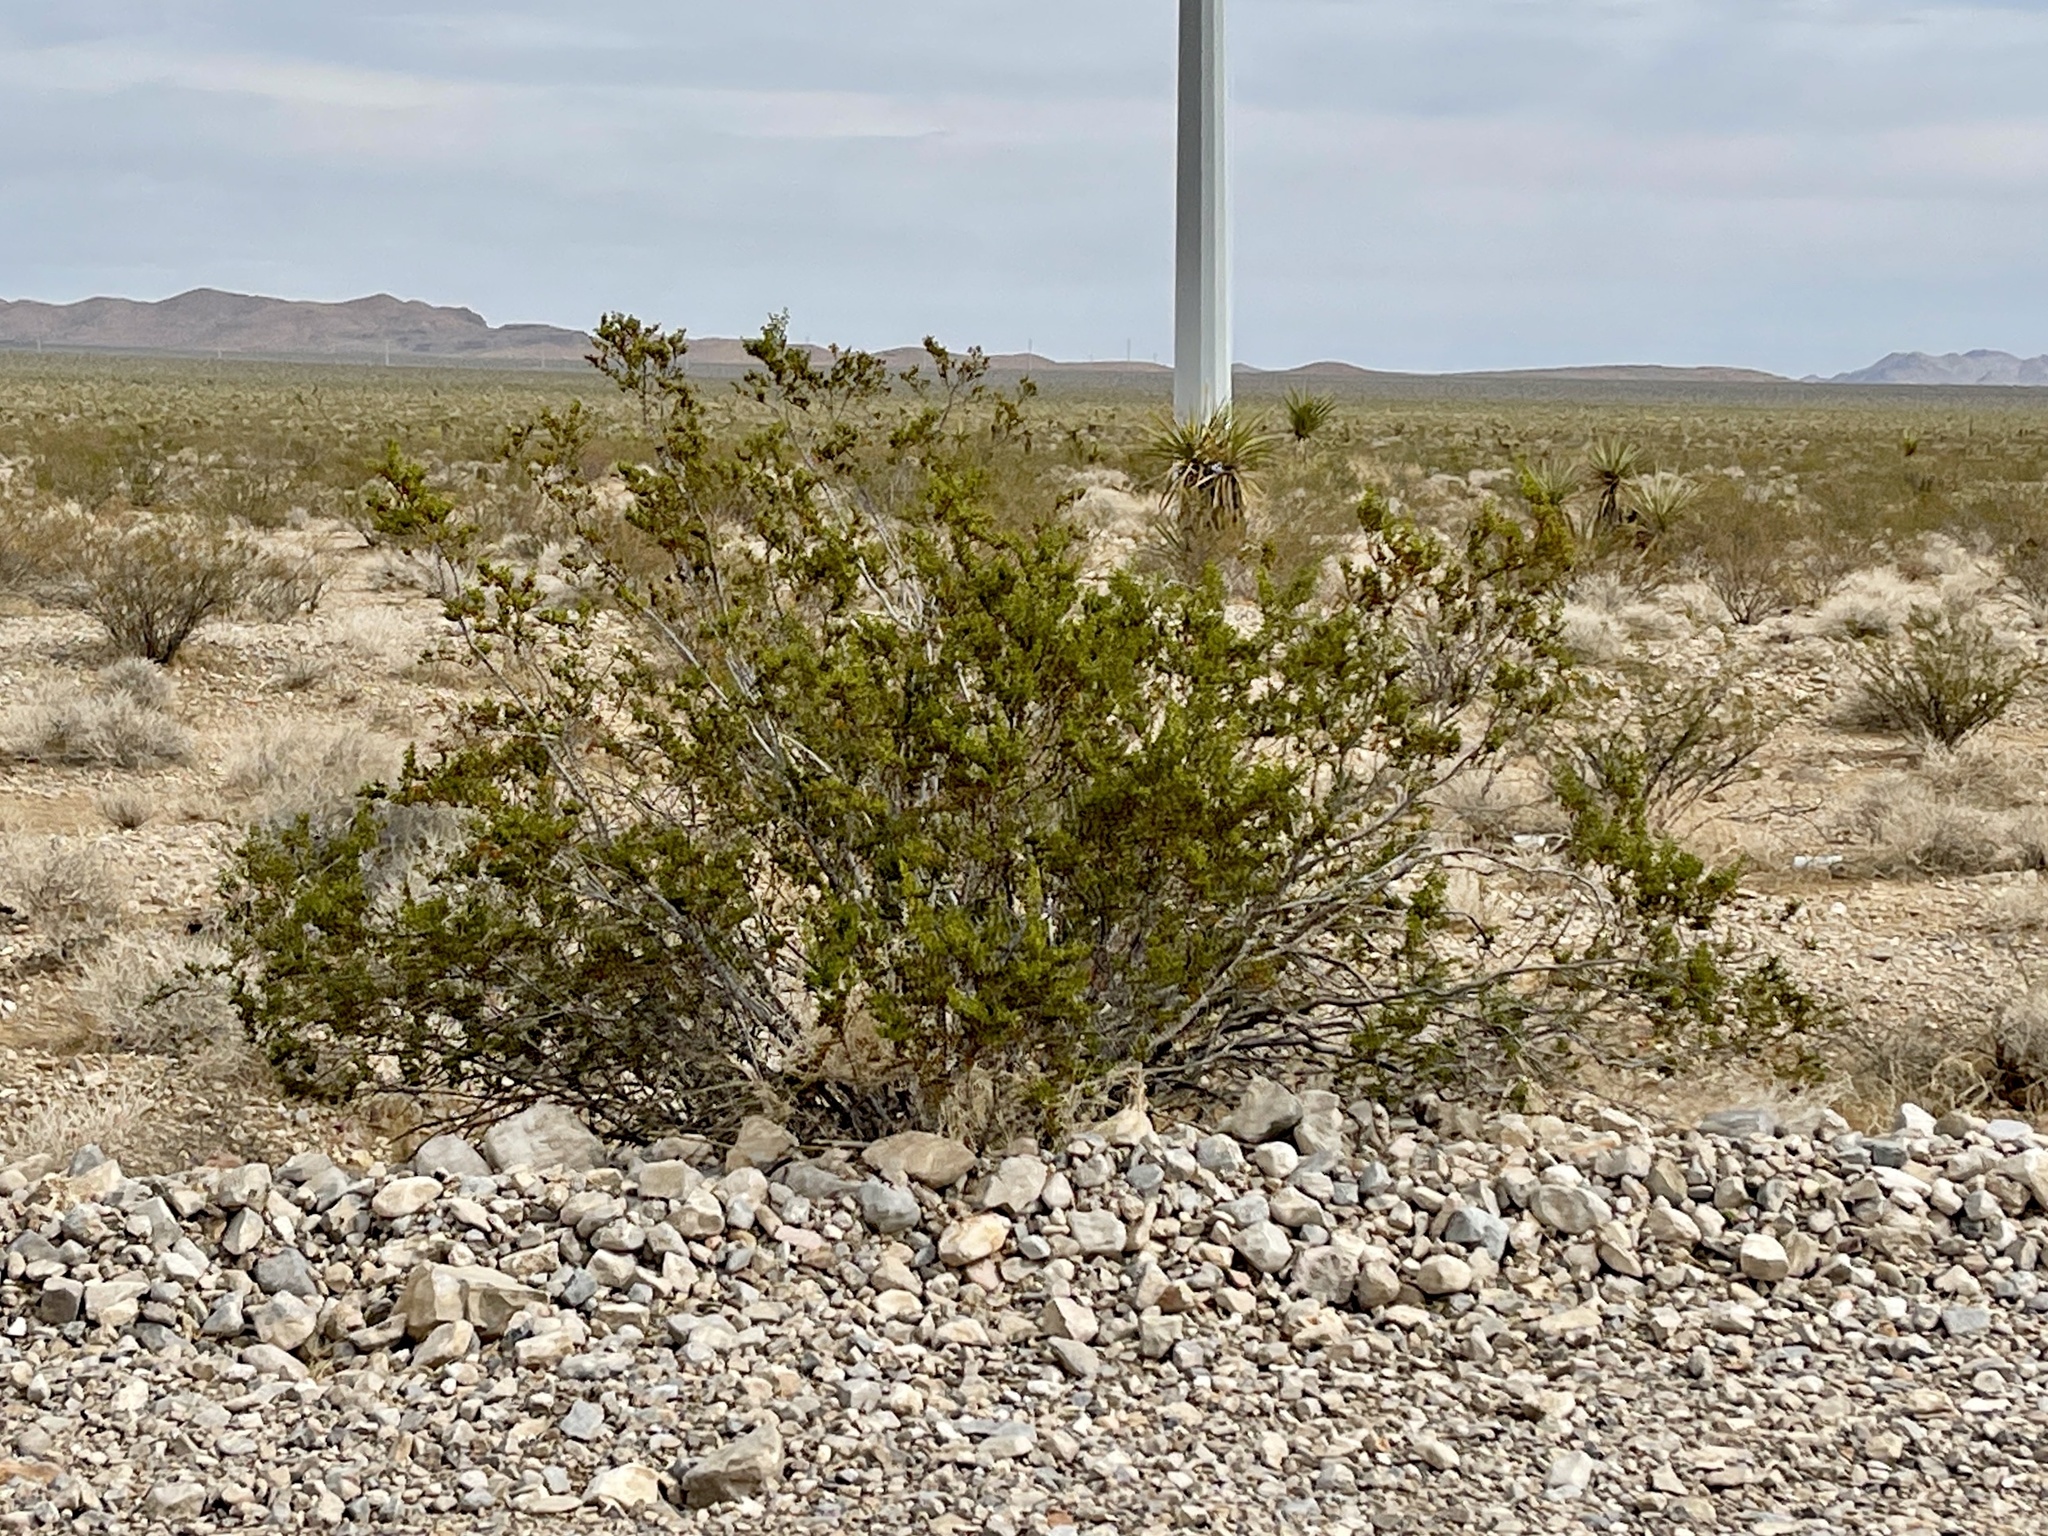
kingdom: Plantae
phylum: Tracheophyta
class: Magnoliopsida
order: Zygophyllales
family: Zygophyllaceae
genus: Larrea
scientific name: Larrea tridentata
